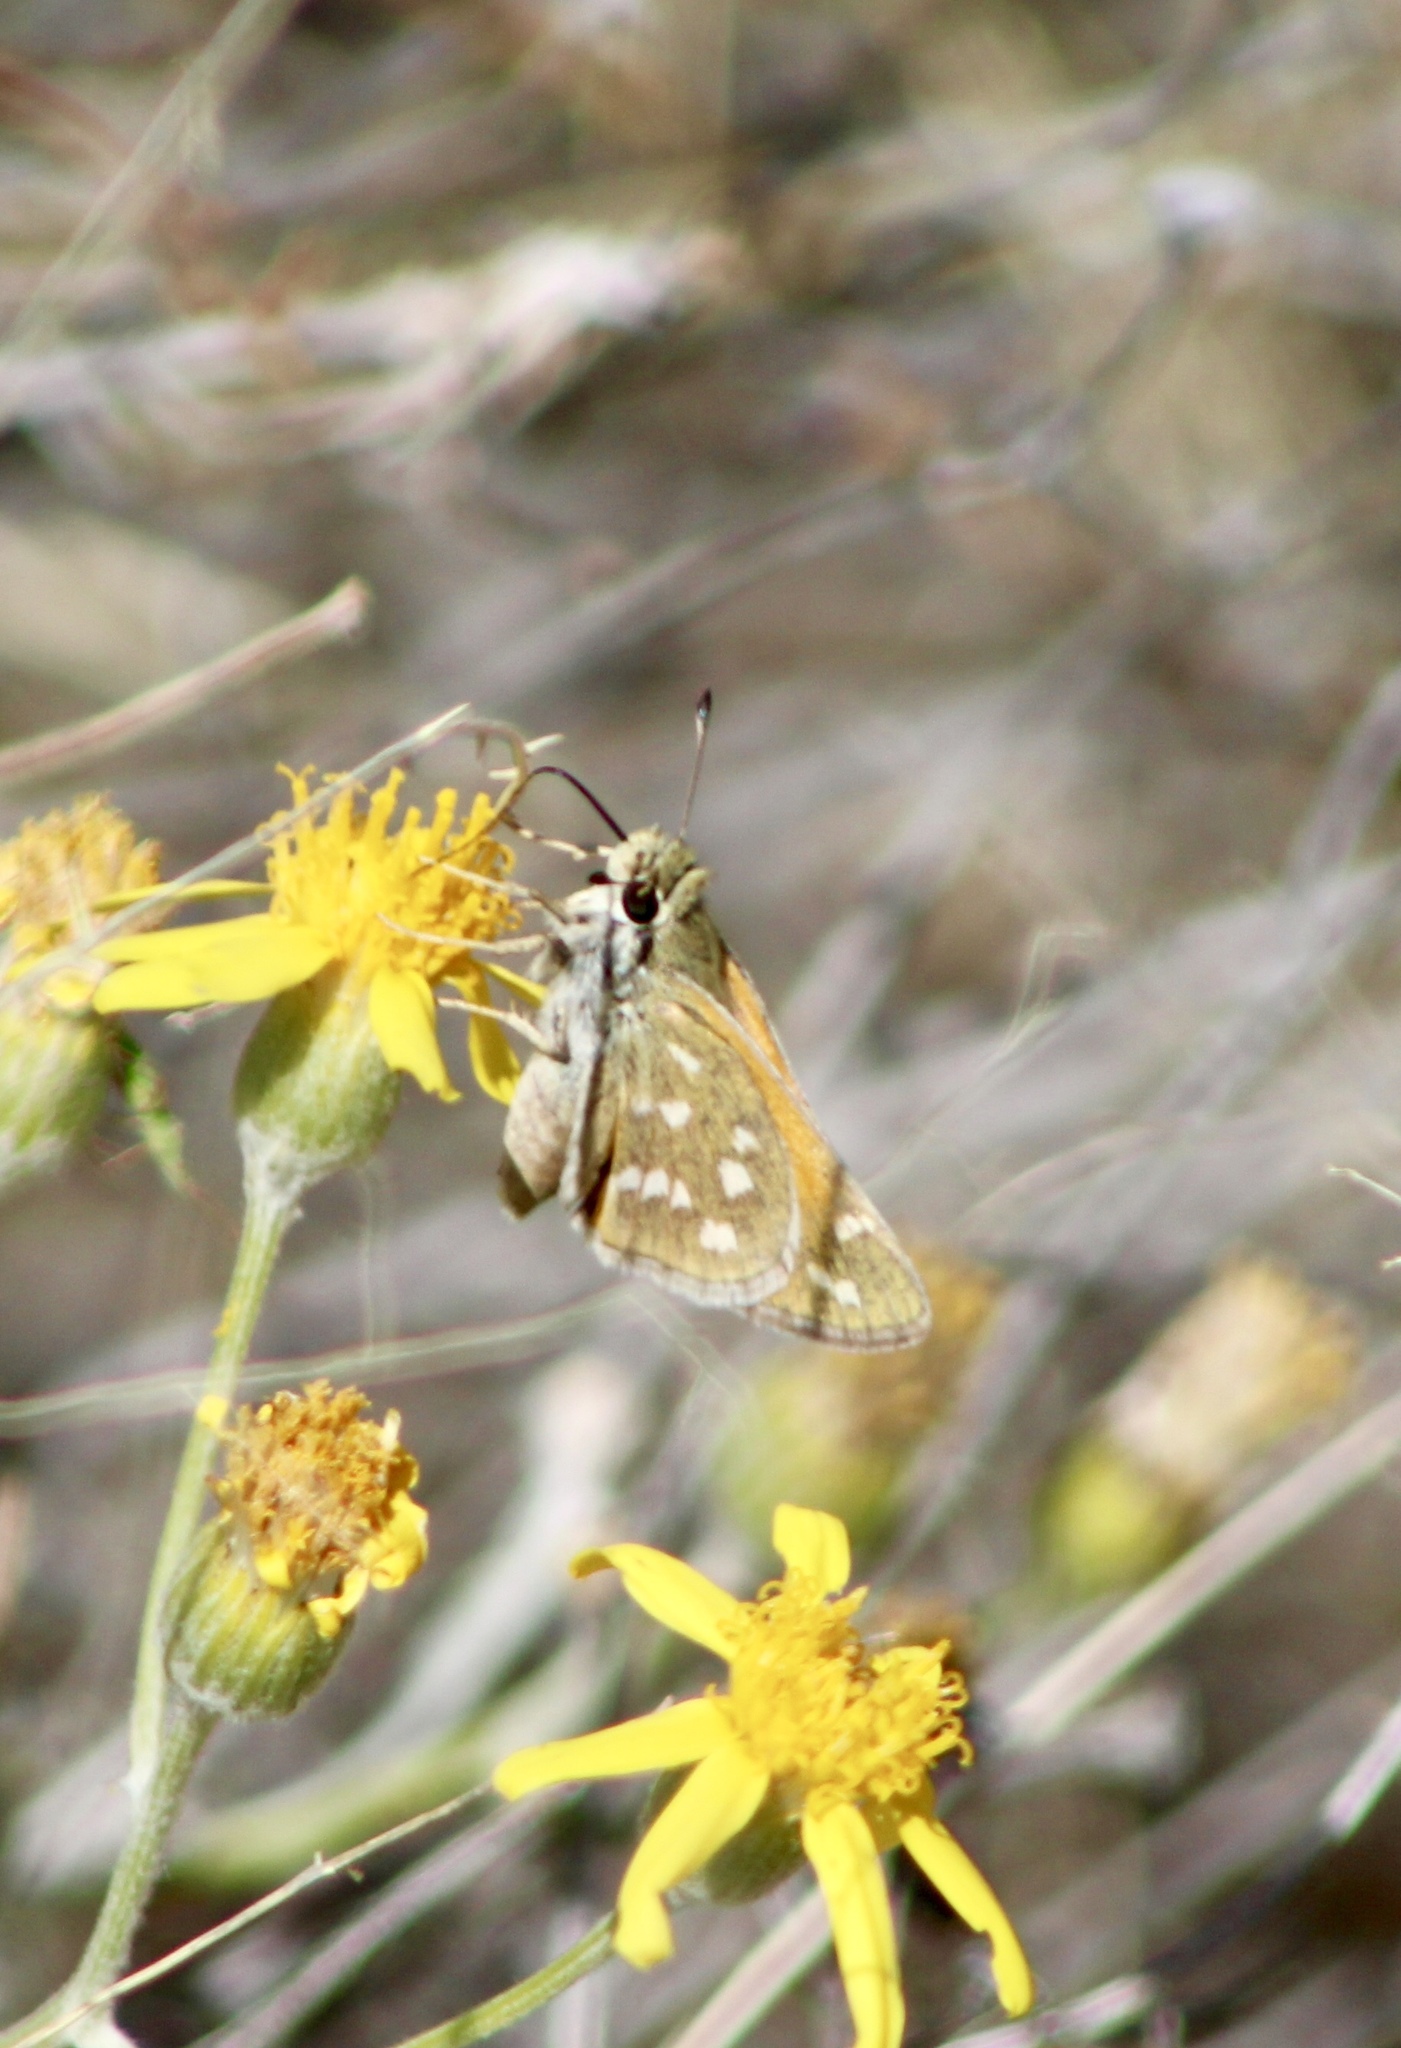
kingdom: Animalia
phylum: Arthropoda
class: Insecta
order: Lepidoptera
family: Hesperiidae
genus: Hesperia
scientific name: Hesperia pahaska
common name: Pahaska skipper
